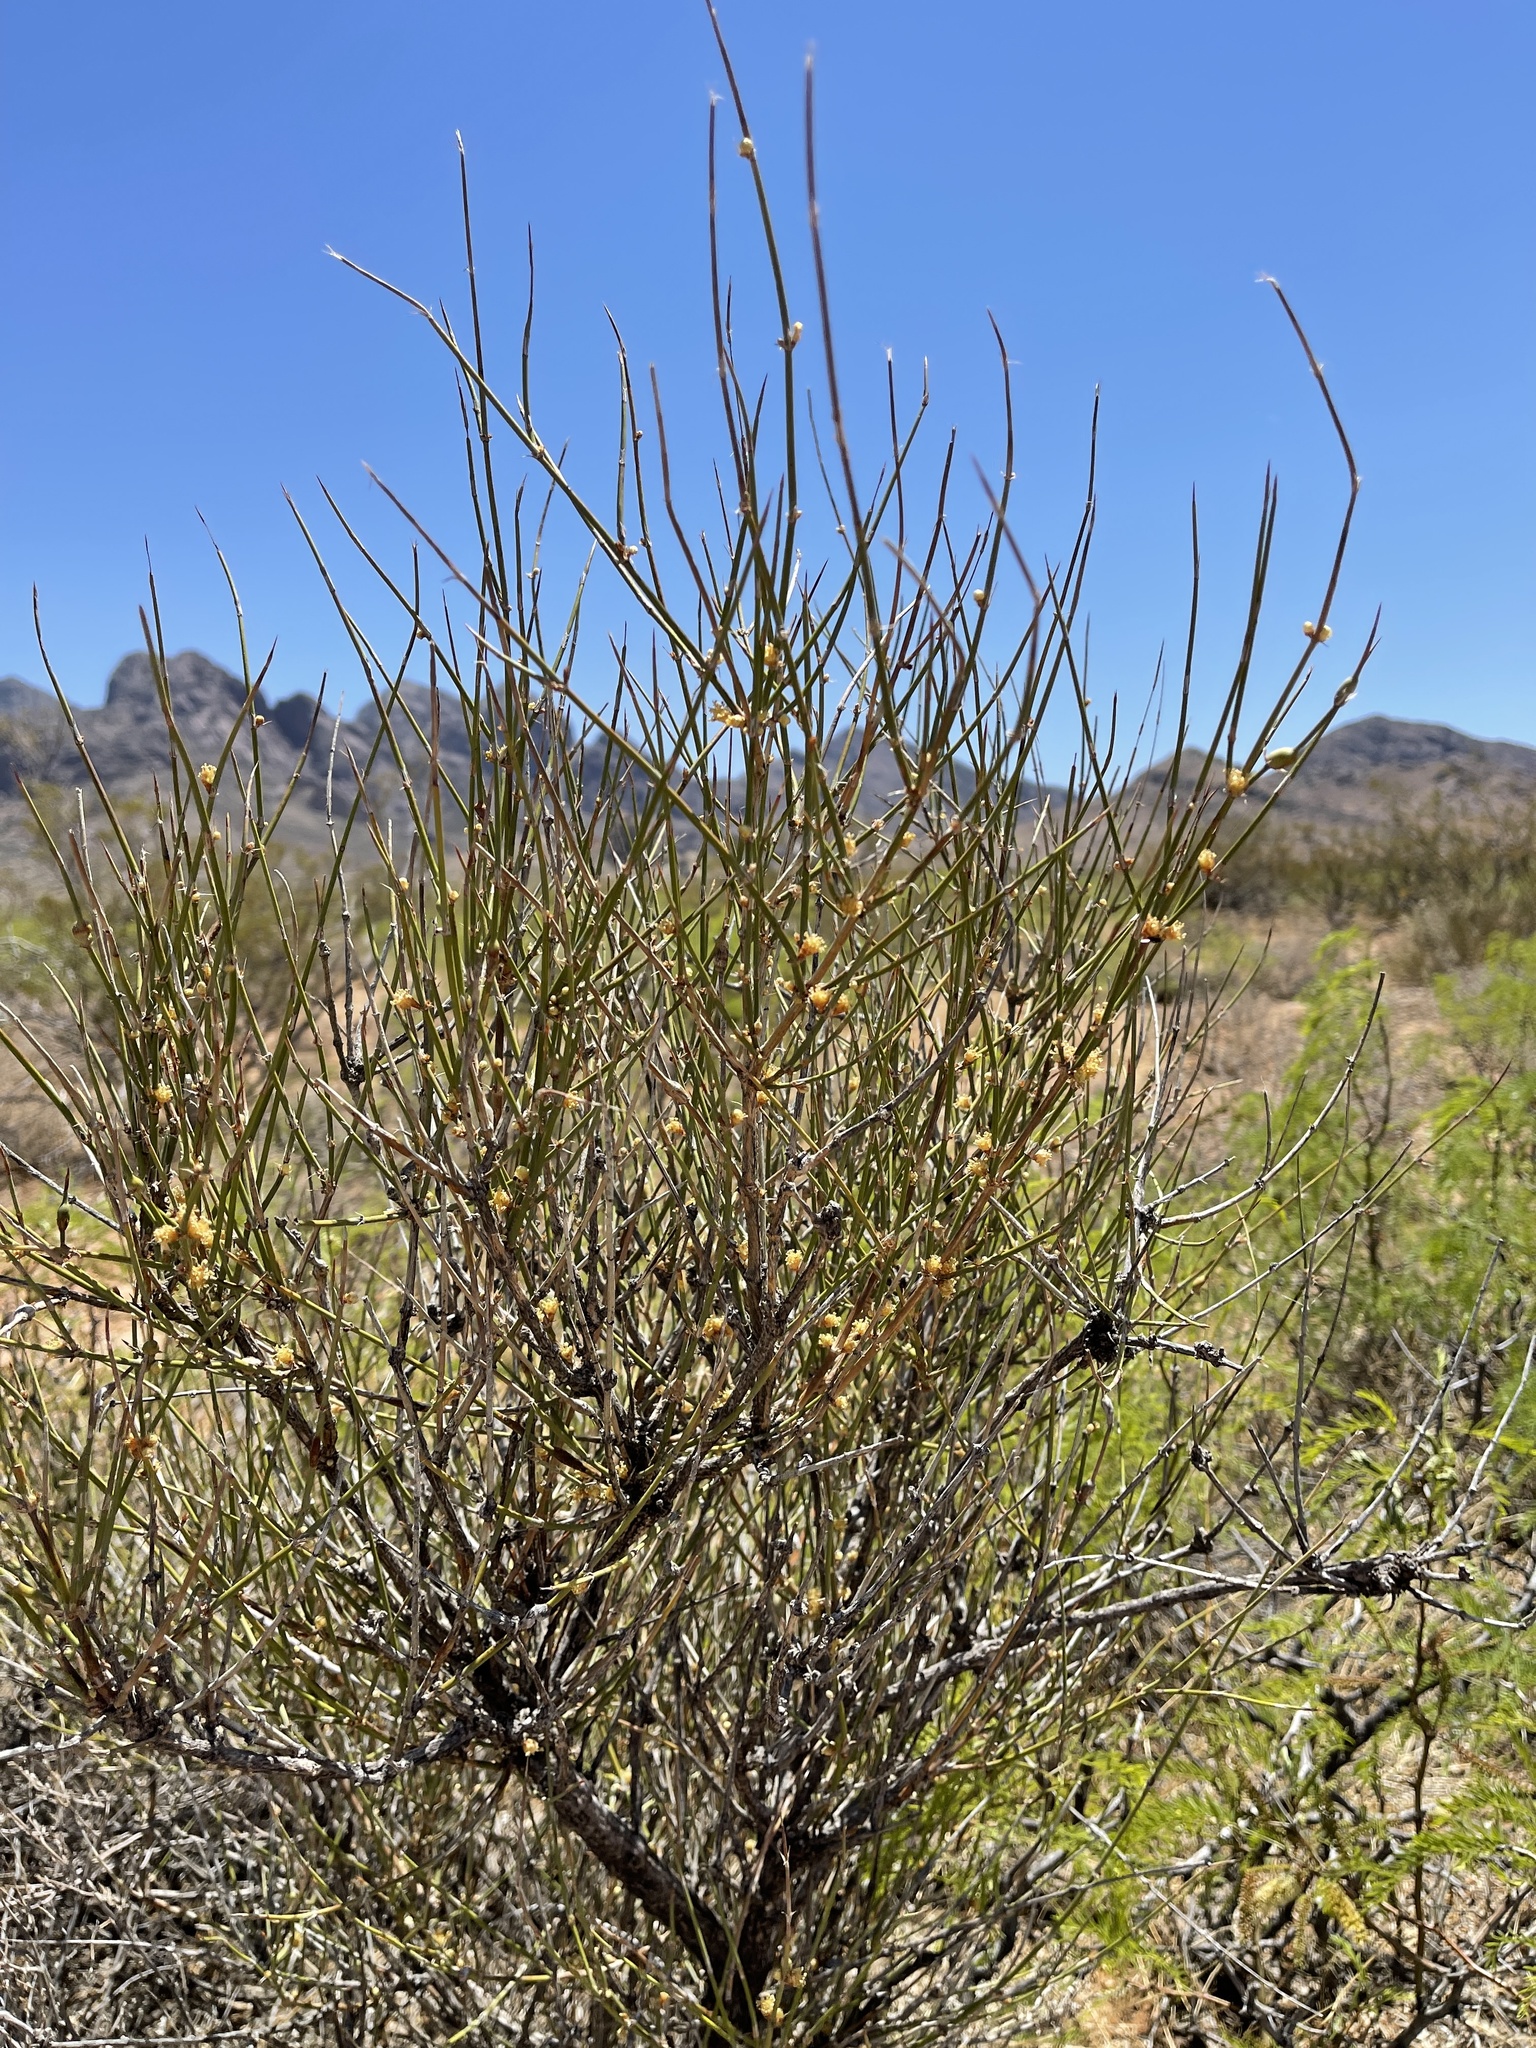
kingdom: Plantae
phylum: Tracheophyta
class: Gnetopsida
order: Ephedrales
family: Ephedraceae
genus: Ephedra
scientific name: Ephedra trifurca
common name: Mexican-tea
